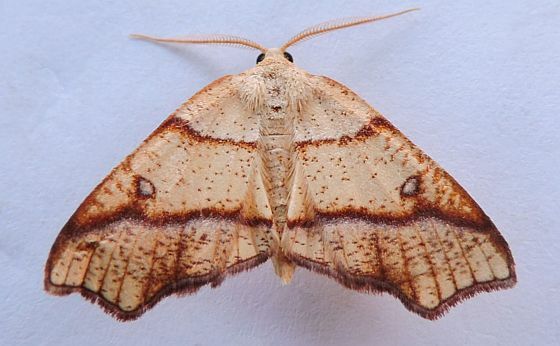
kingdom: Animalia
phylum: Arthropoda
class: Insecta
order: Lepidoptera
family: Geometridae
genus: Plagodis
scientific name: Plagodis alcoolaria
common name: Hollow-spotted plagodis
